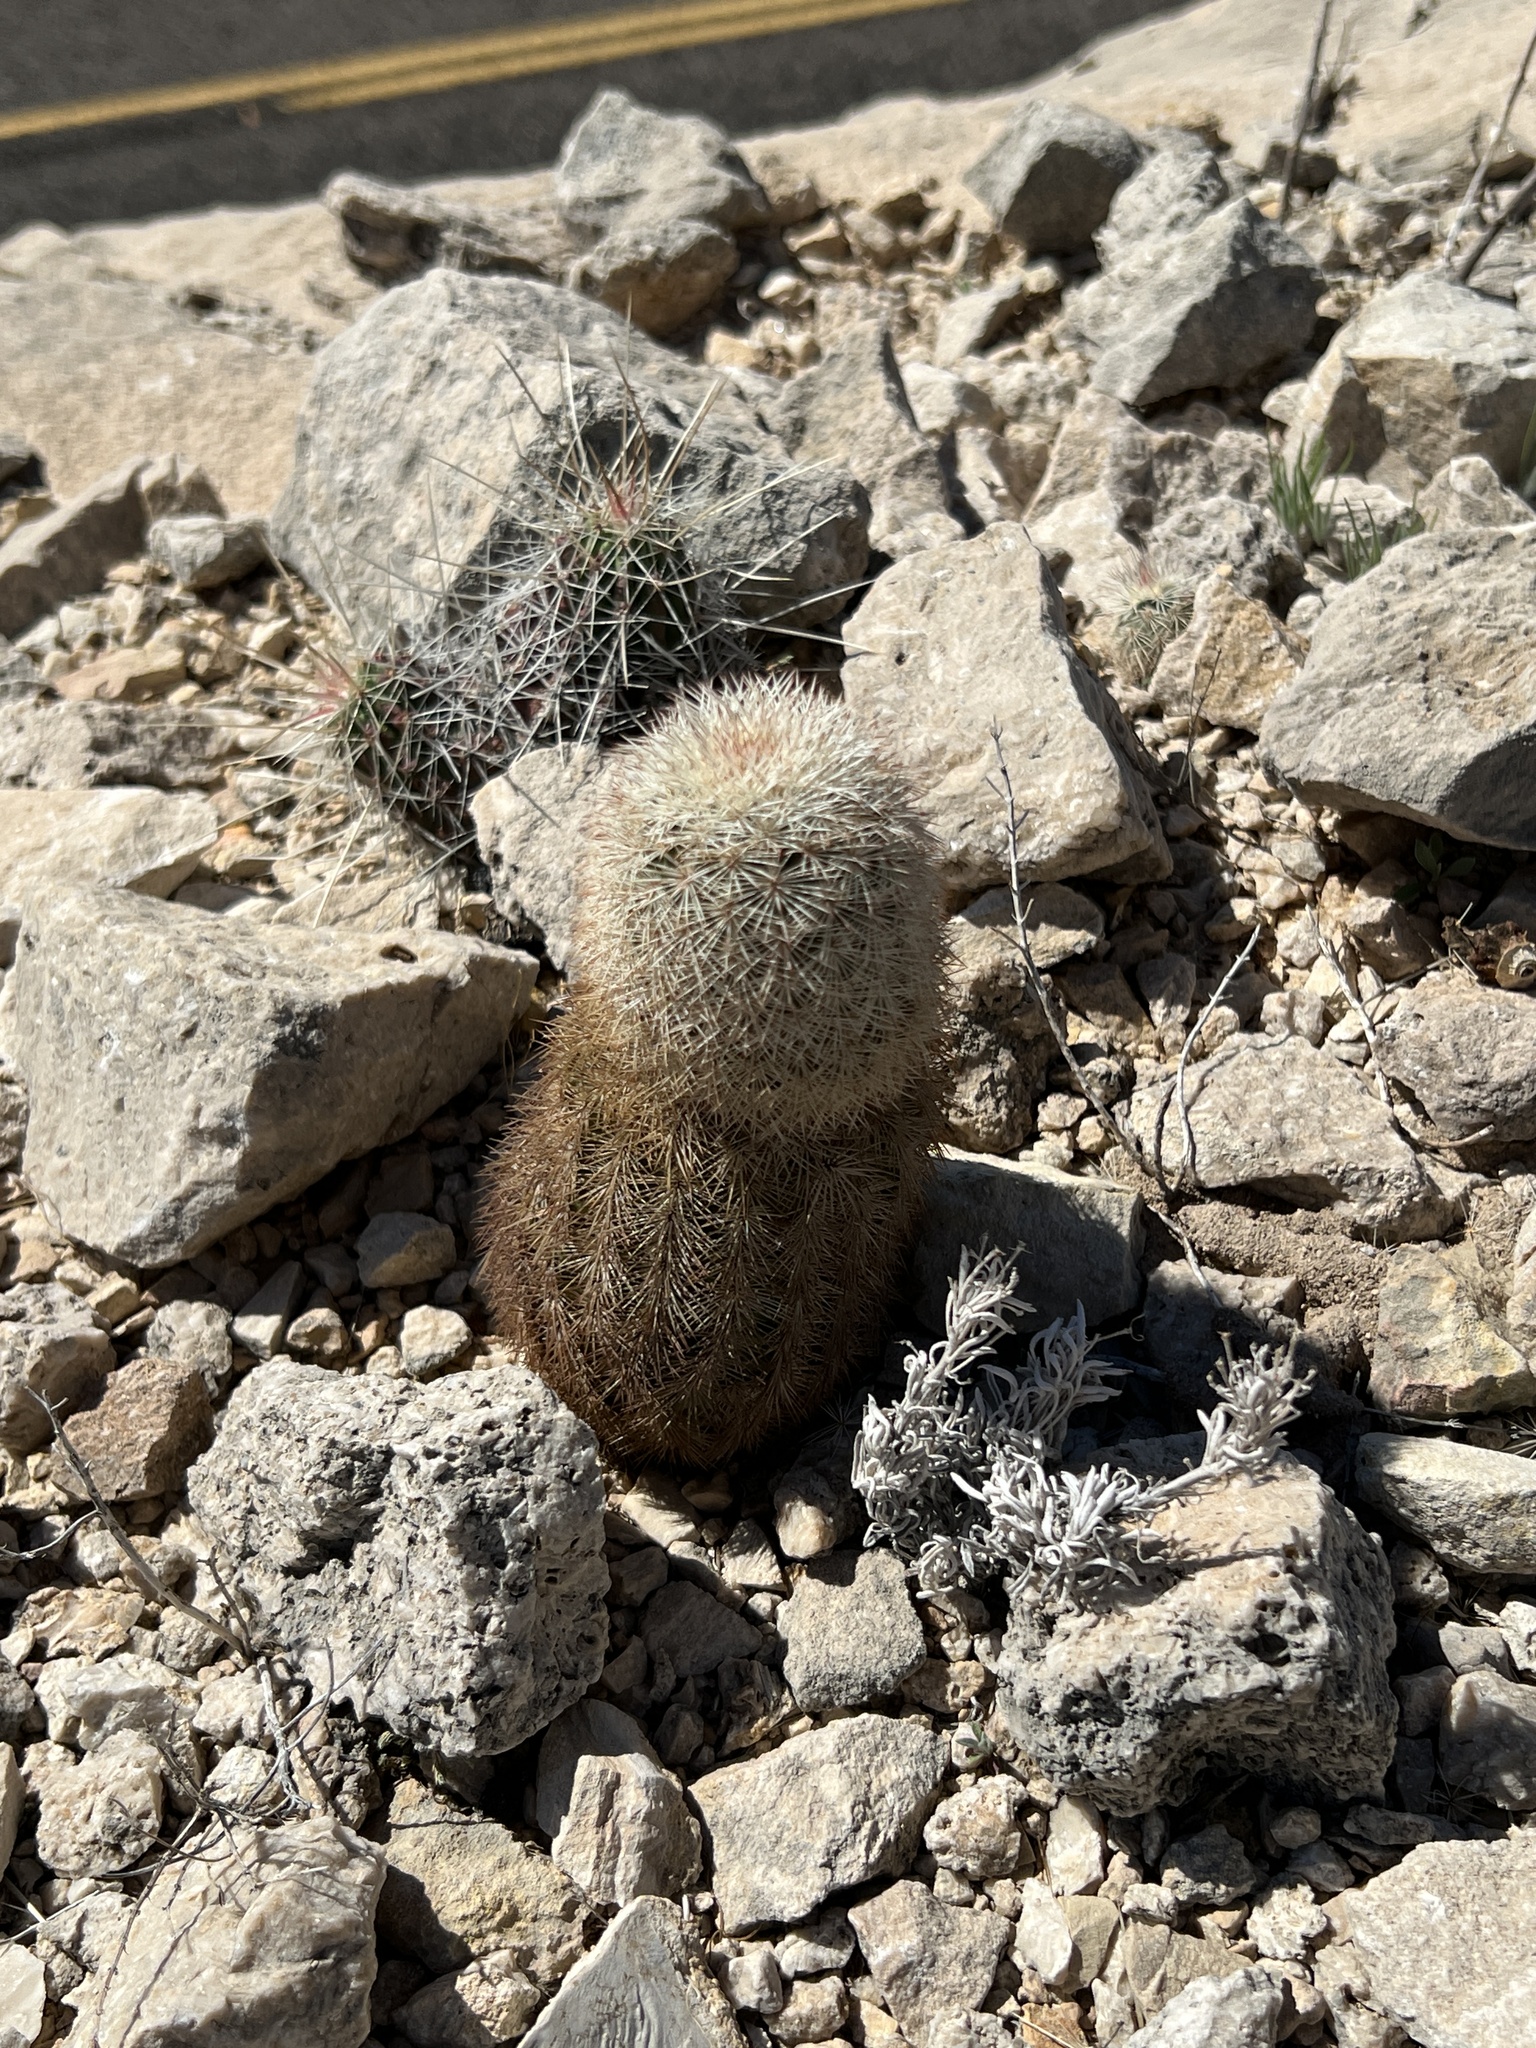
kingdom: Plantae
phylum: Tracheophyta
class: Magnoliopsida
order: Caryophyllales
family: Cactaceae
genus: Echinocereus
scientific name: Echinocereus dasyacanthus
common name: Spiny hedgehog cactus
